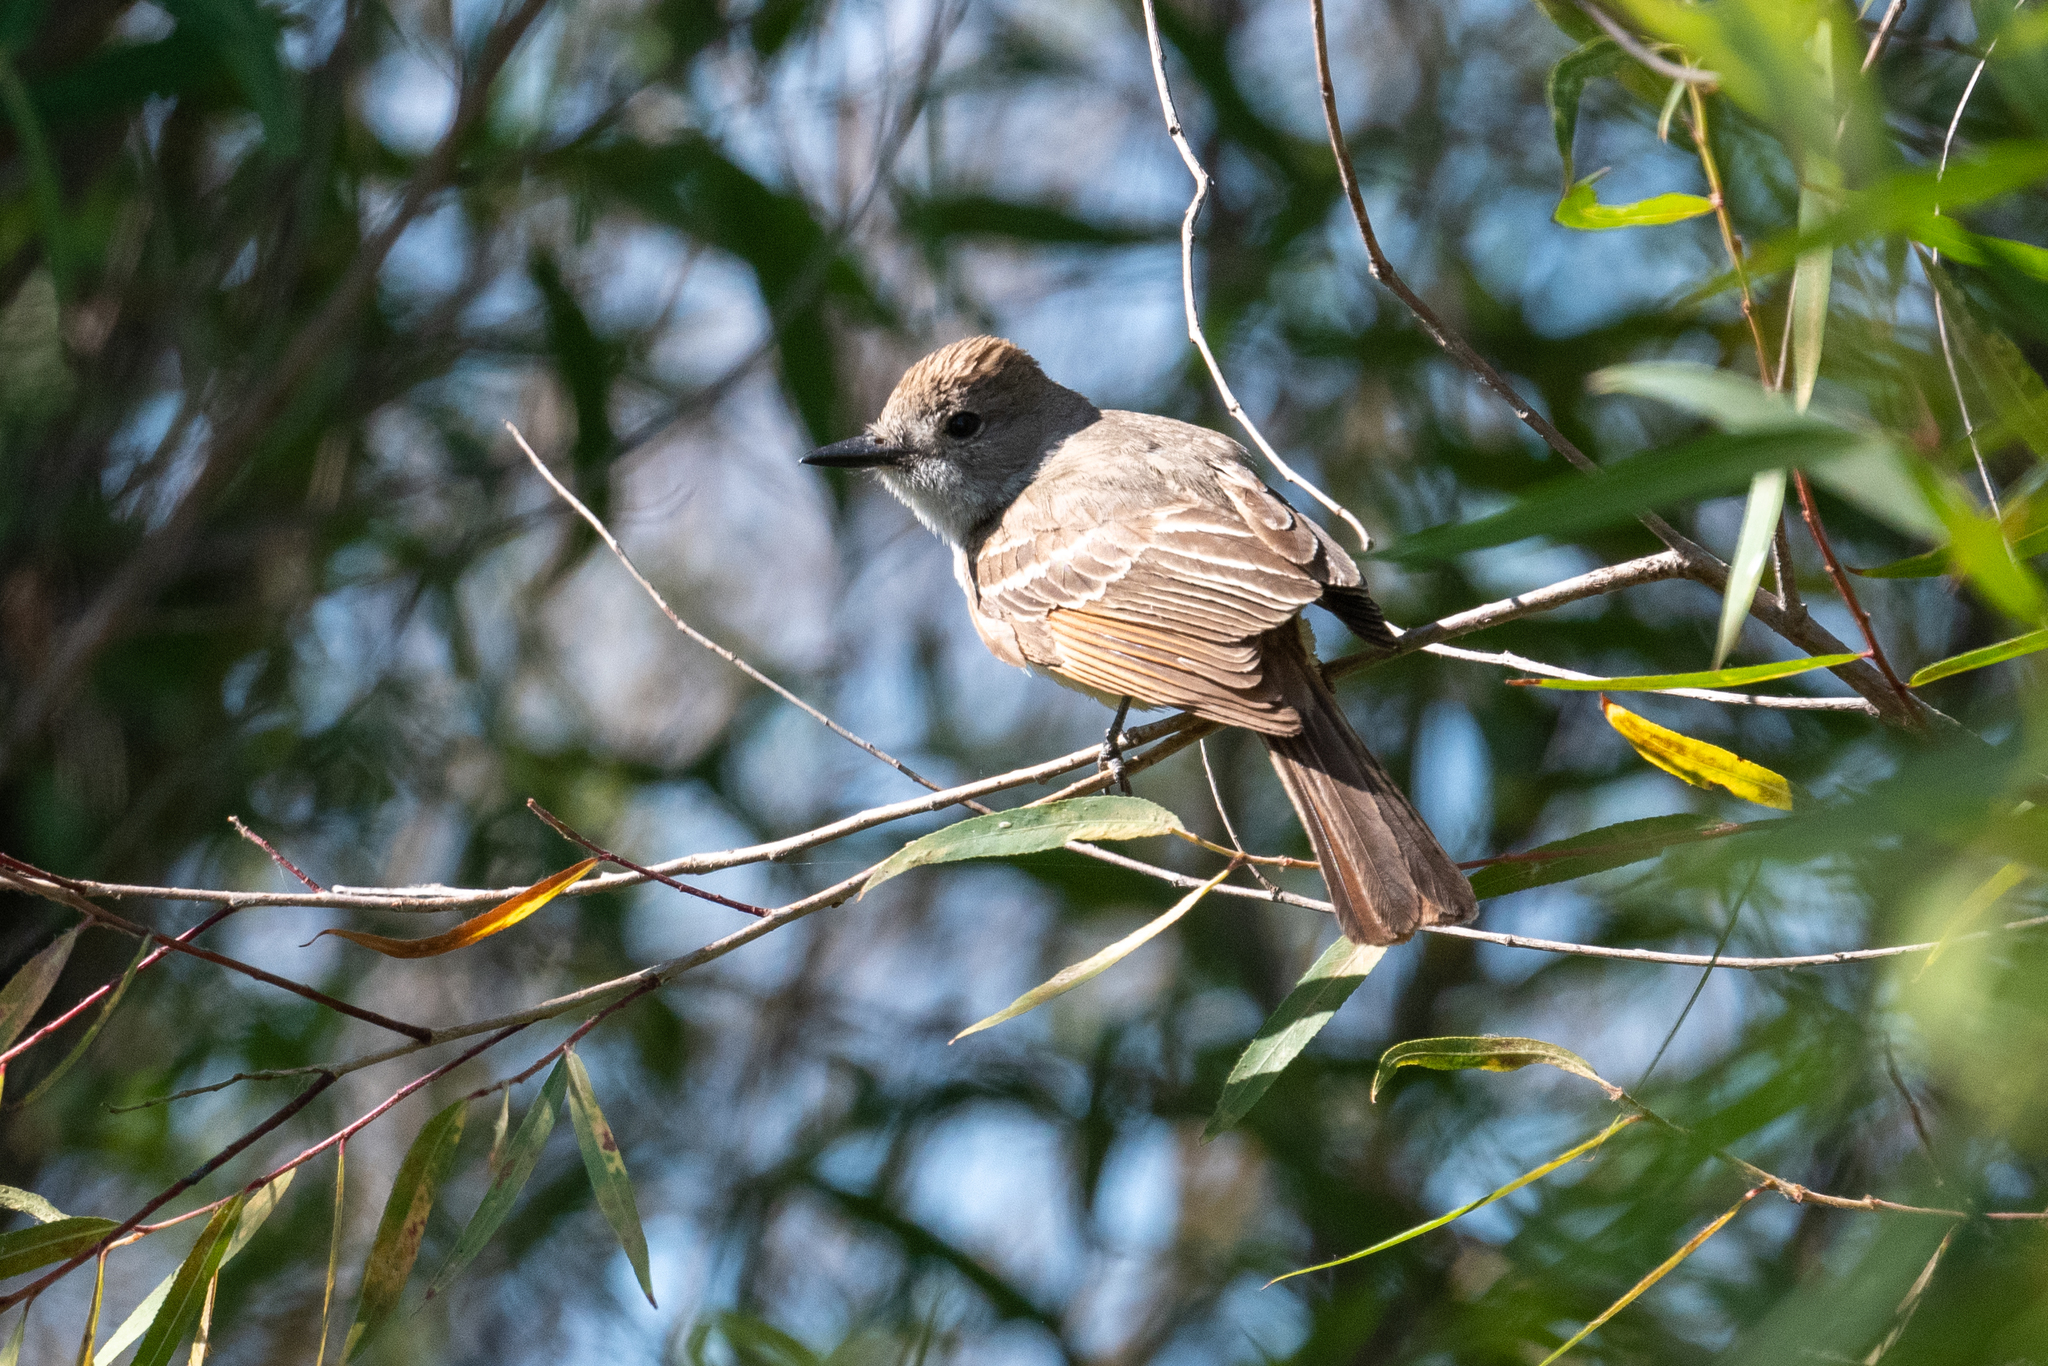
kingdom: Animalia
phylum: Chordata
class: Aves
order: Passeriformes
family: Tyrannidae
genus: Myiarchus
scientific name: Myiarchus cinerascens
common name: Ash-throated flycatcher
